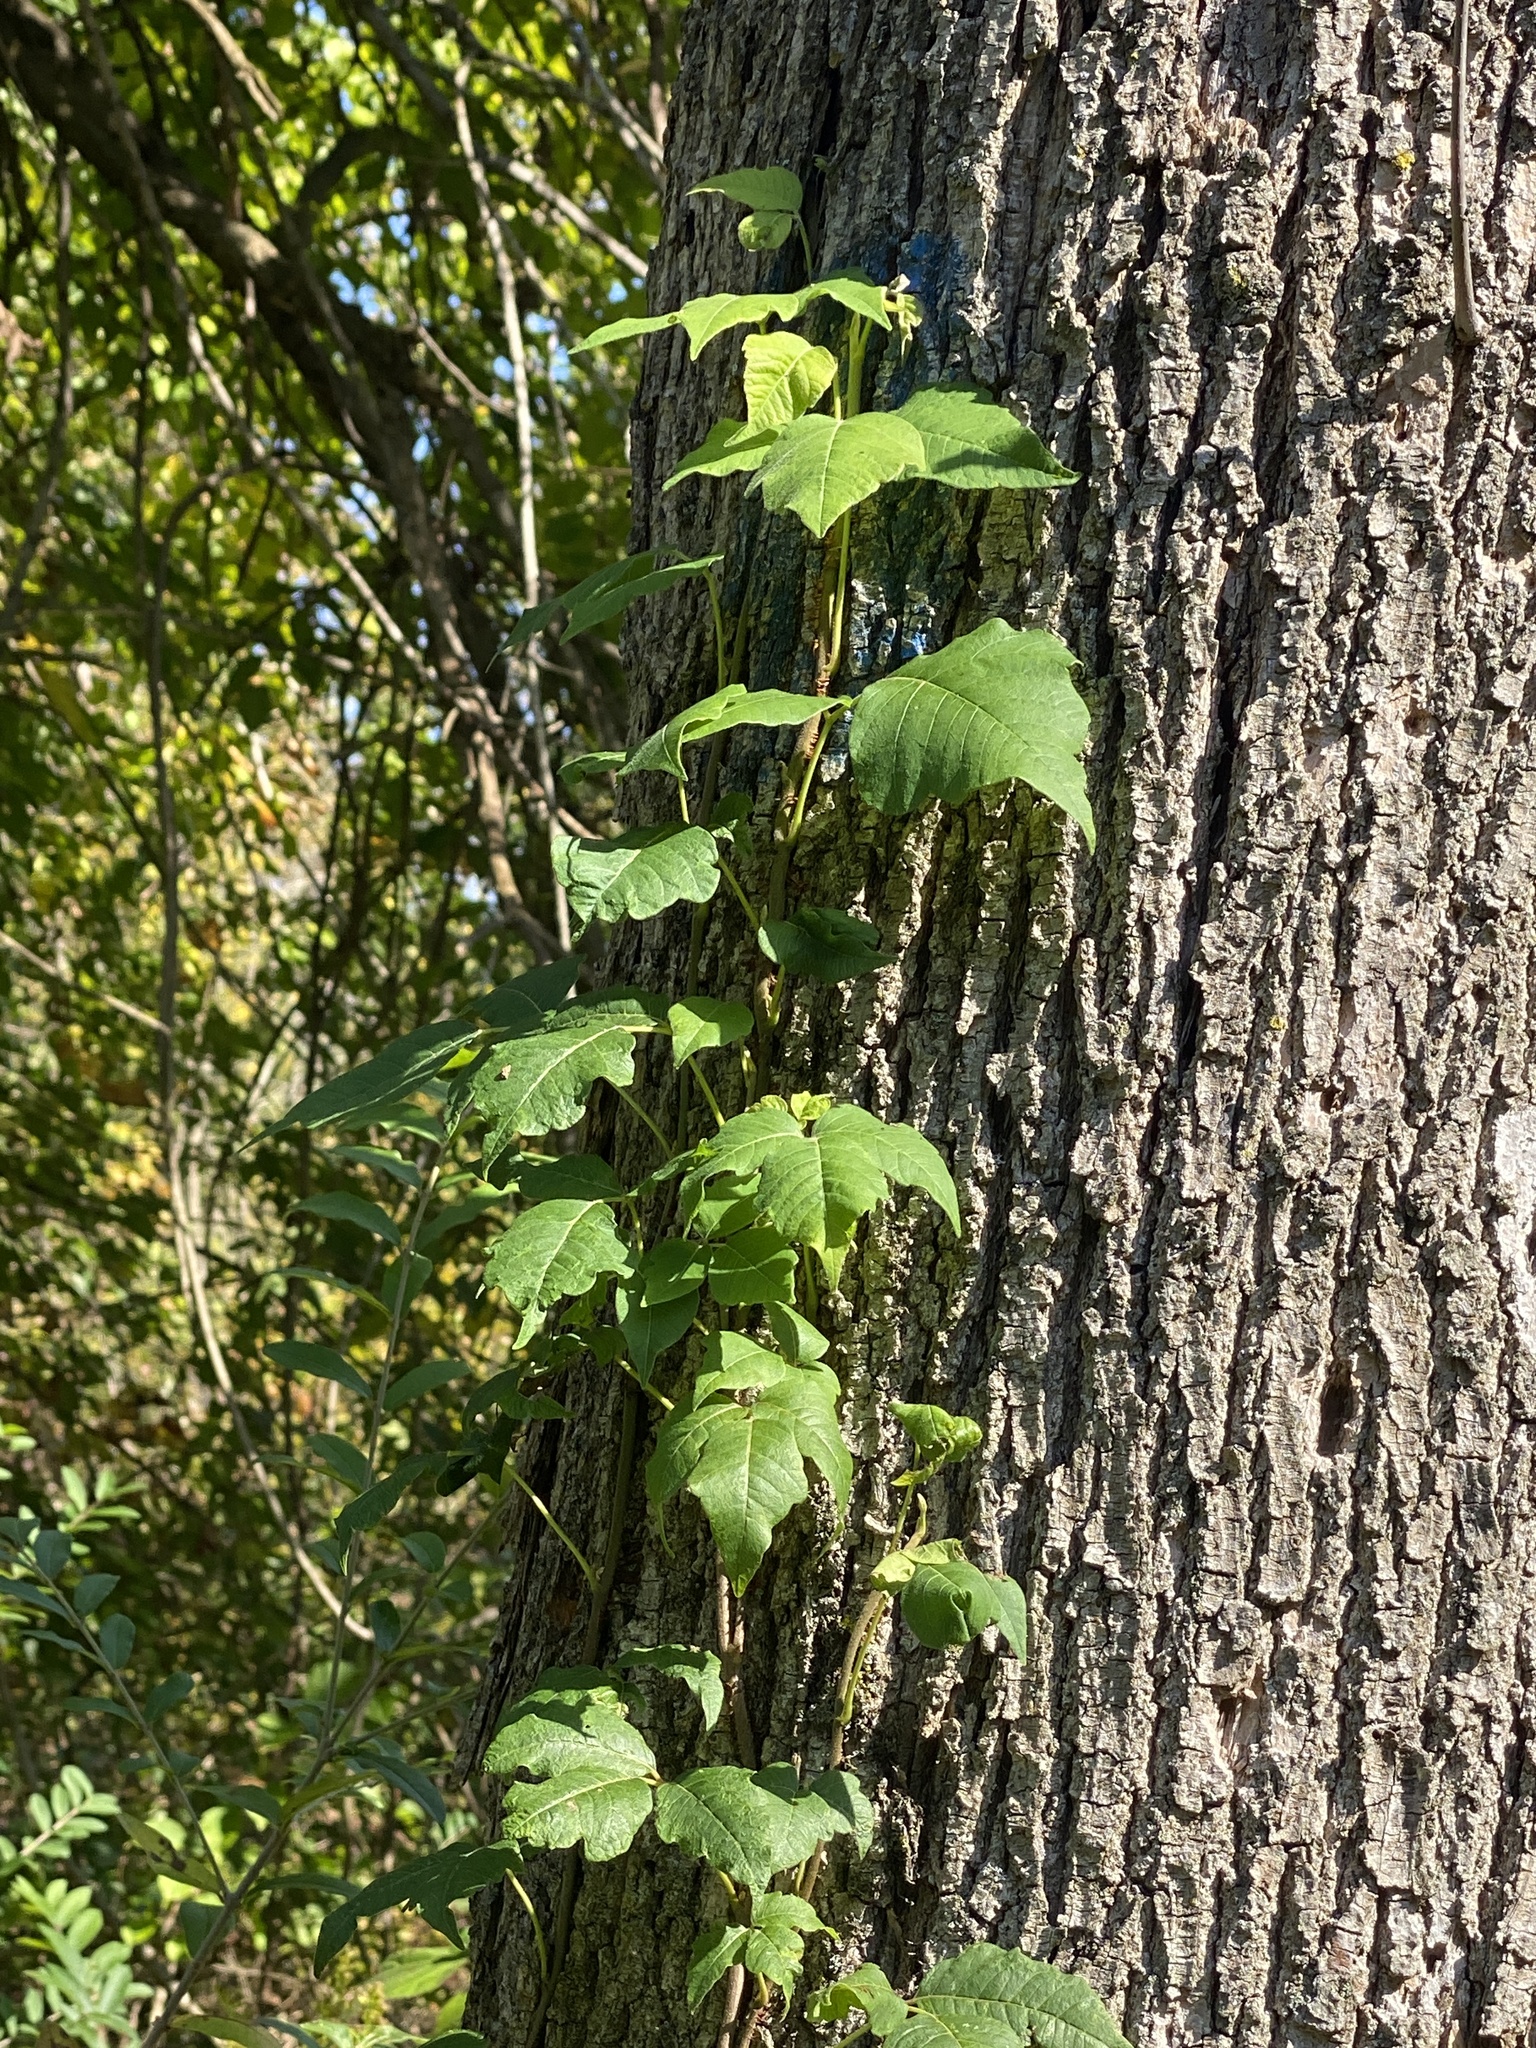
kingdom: Plantae
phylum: Tracheophyta
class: Magnoliopsida
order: Sapindales
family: Anacardiaceae
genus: Toxicodendron
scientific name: Toxicodendron radicans
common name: Poison ivy
